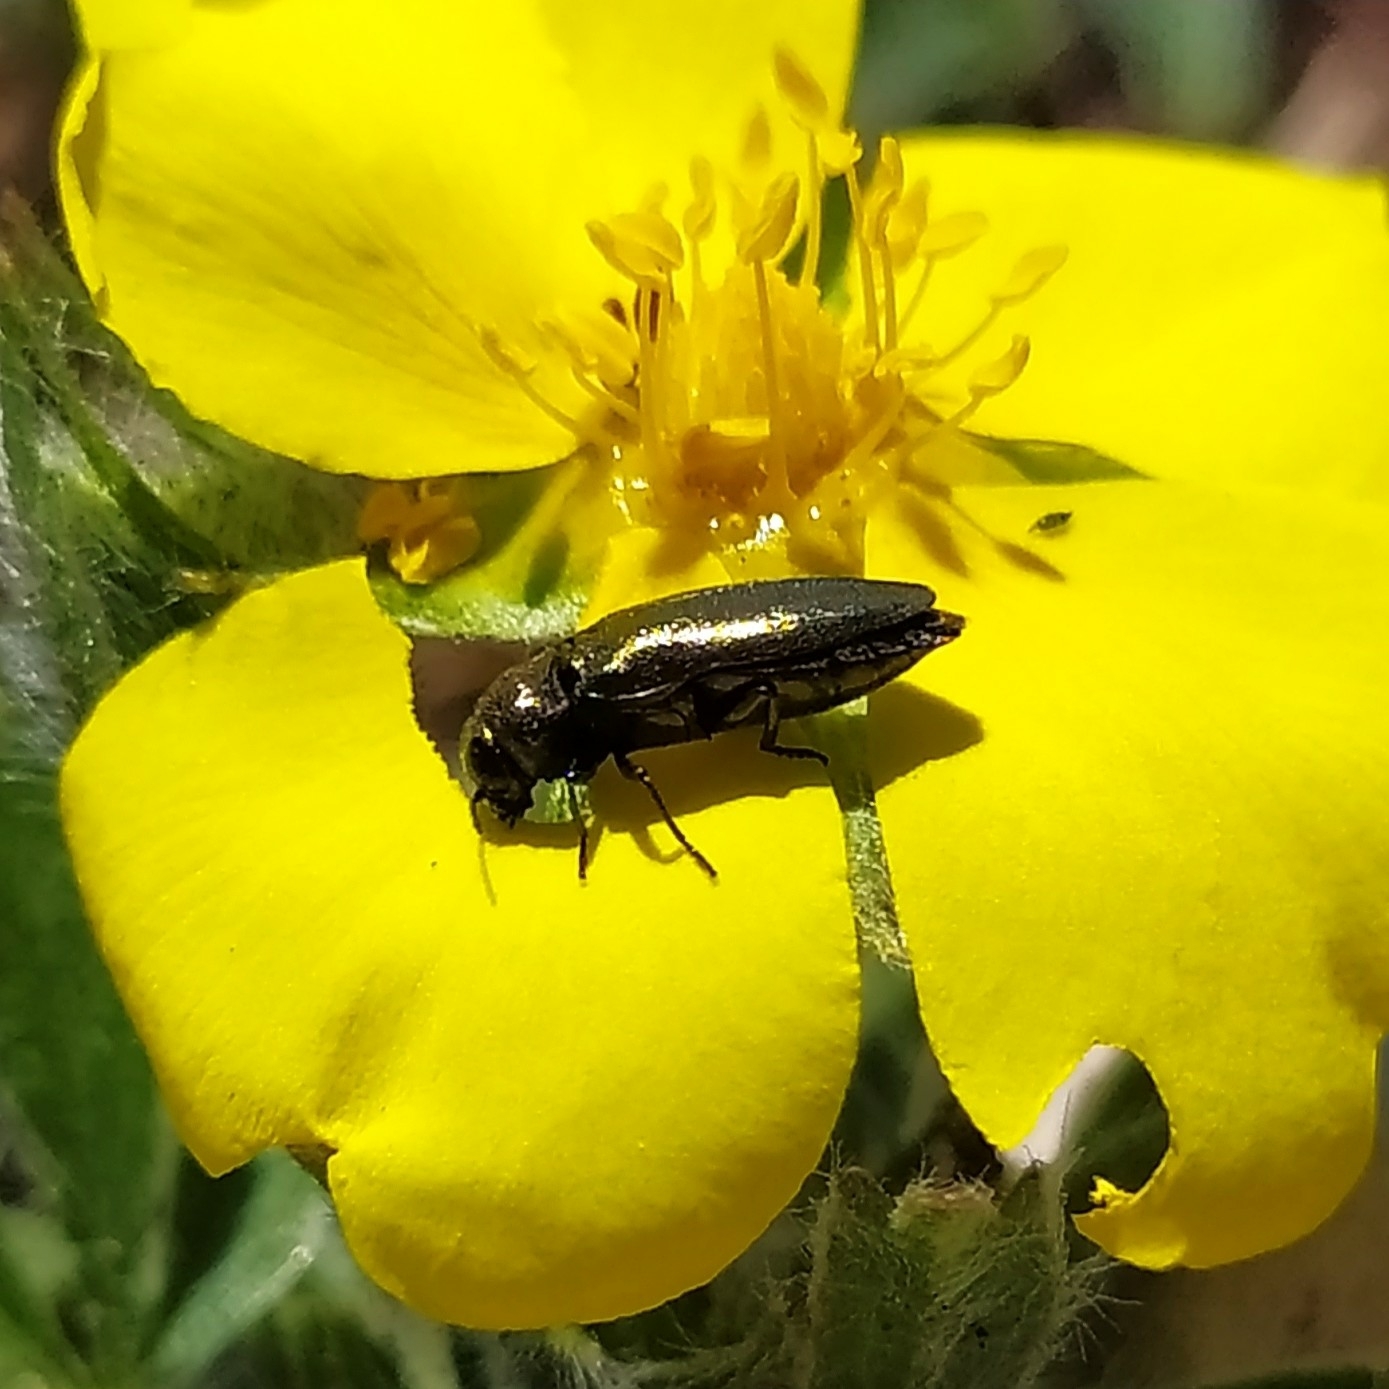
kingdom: Animalia
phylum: Arthropoda
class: Insecta
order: Coleoptera
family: Buprestidae
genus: Coraebus
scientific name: Coraebus elatus
